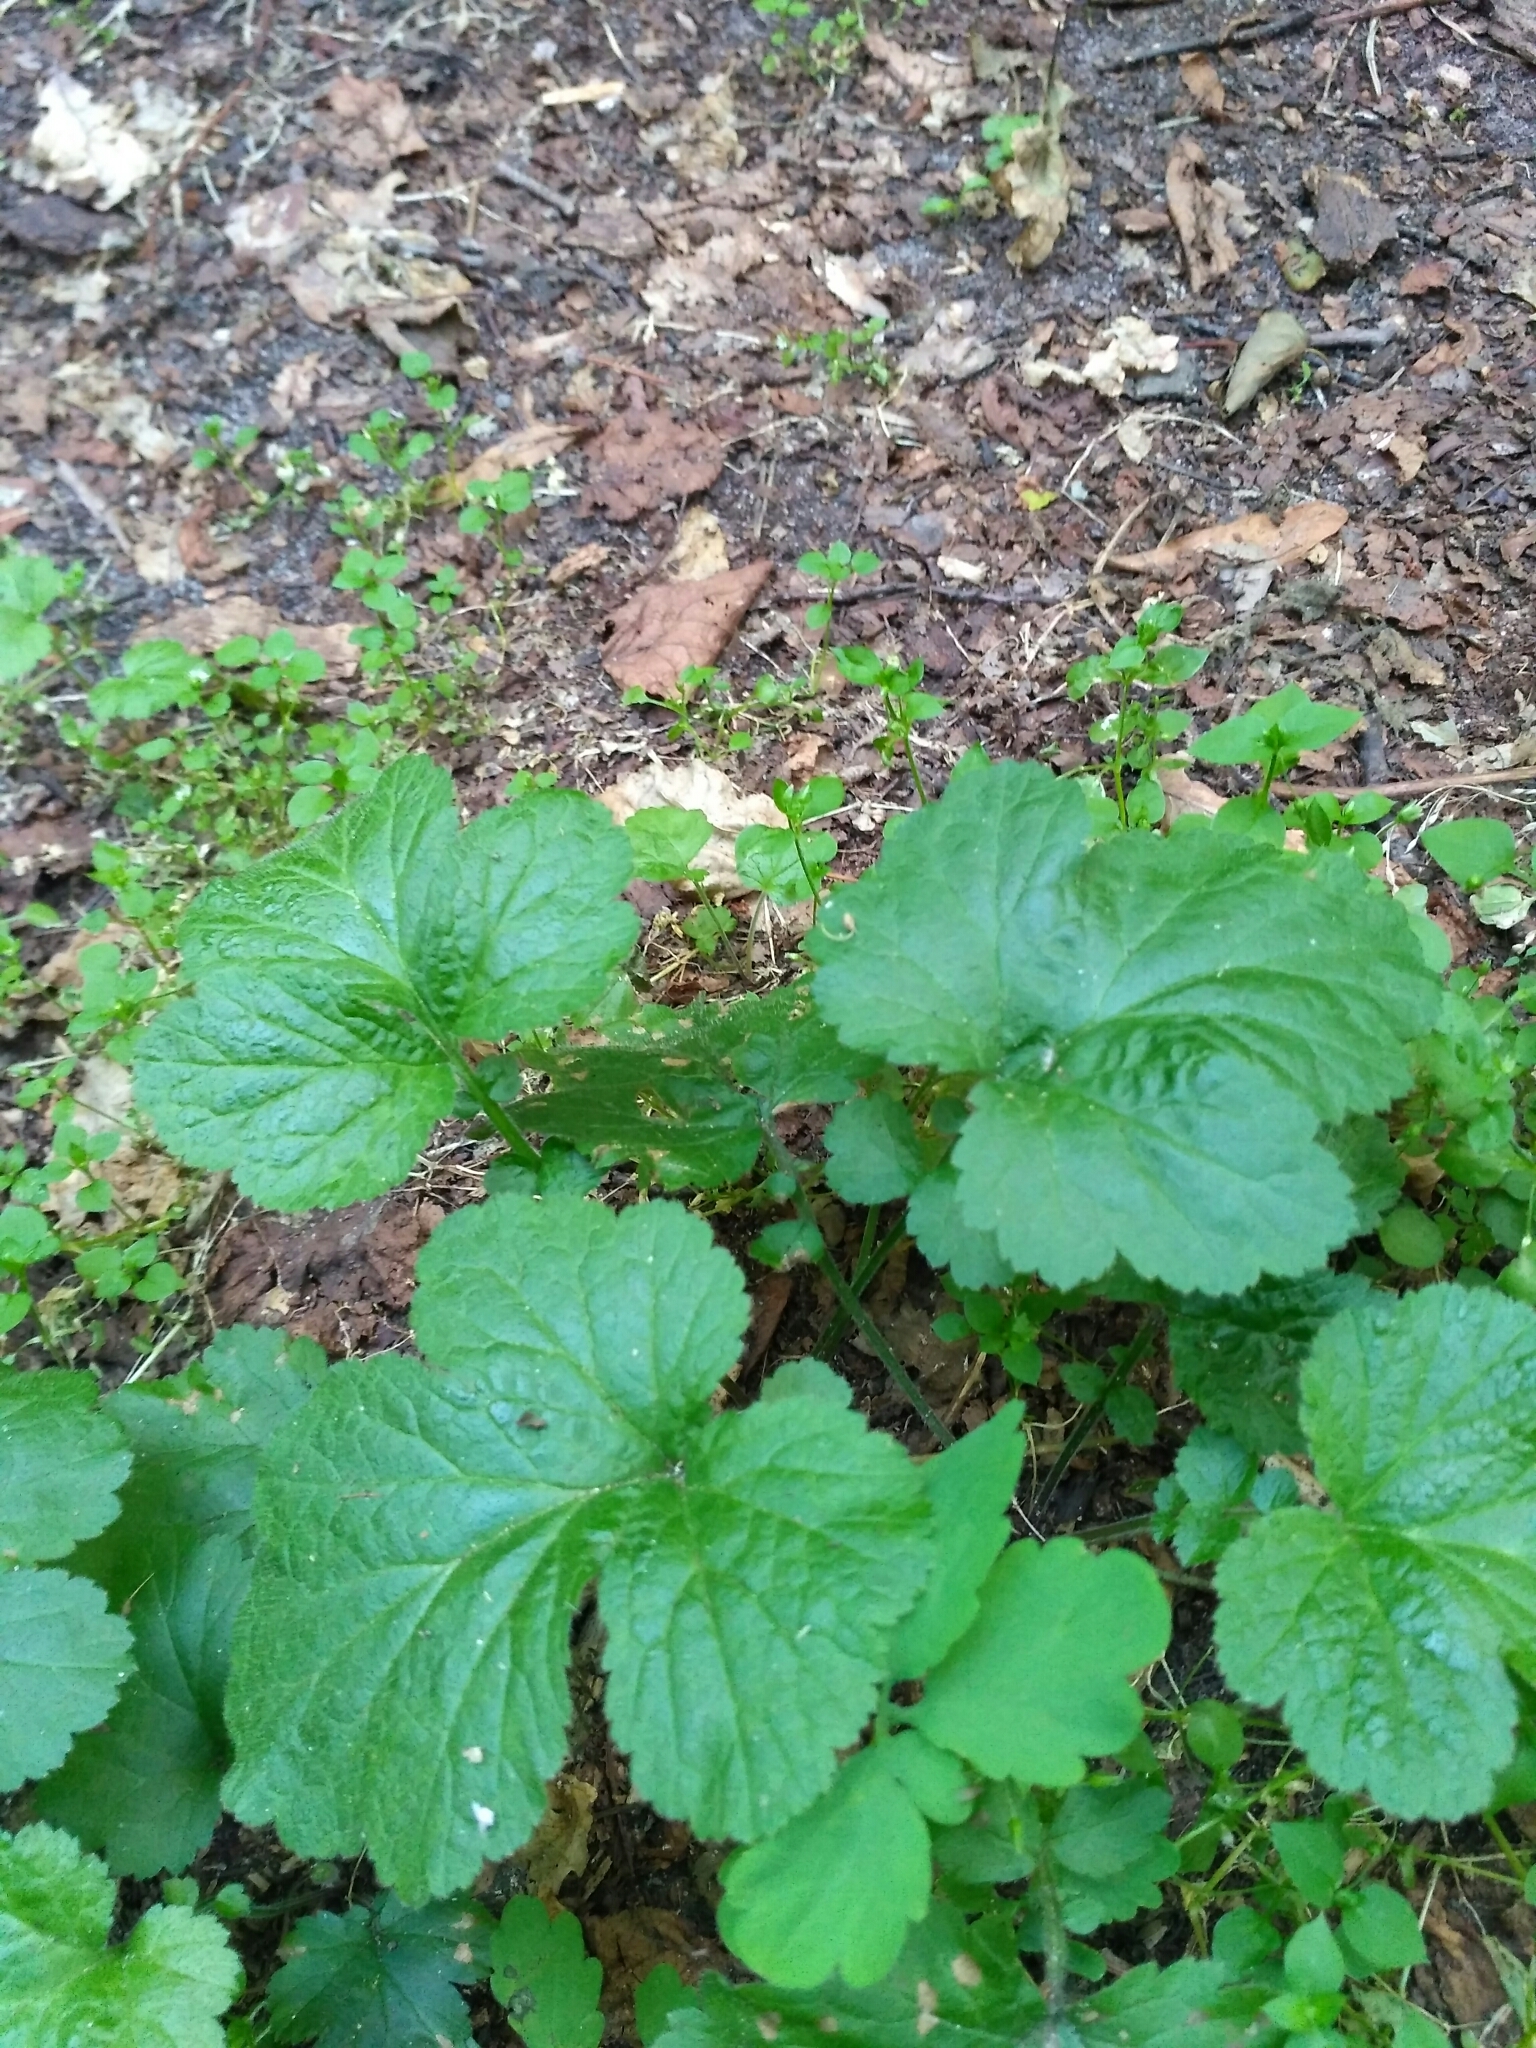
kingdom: Plantae
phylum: Tracheophyta
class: Magnoliopsida
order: Rosales
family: Rosaceae
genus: Geum
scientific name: Geum urbanum
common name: Wood avens
